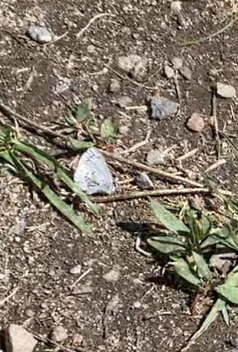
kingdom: Animalia
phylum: Arthropoda
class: Insecta
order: Lepidoptera
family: Lycaenidae
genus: Celastrina
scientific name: Celastrina lucia
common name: Lucia azure
